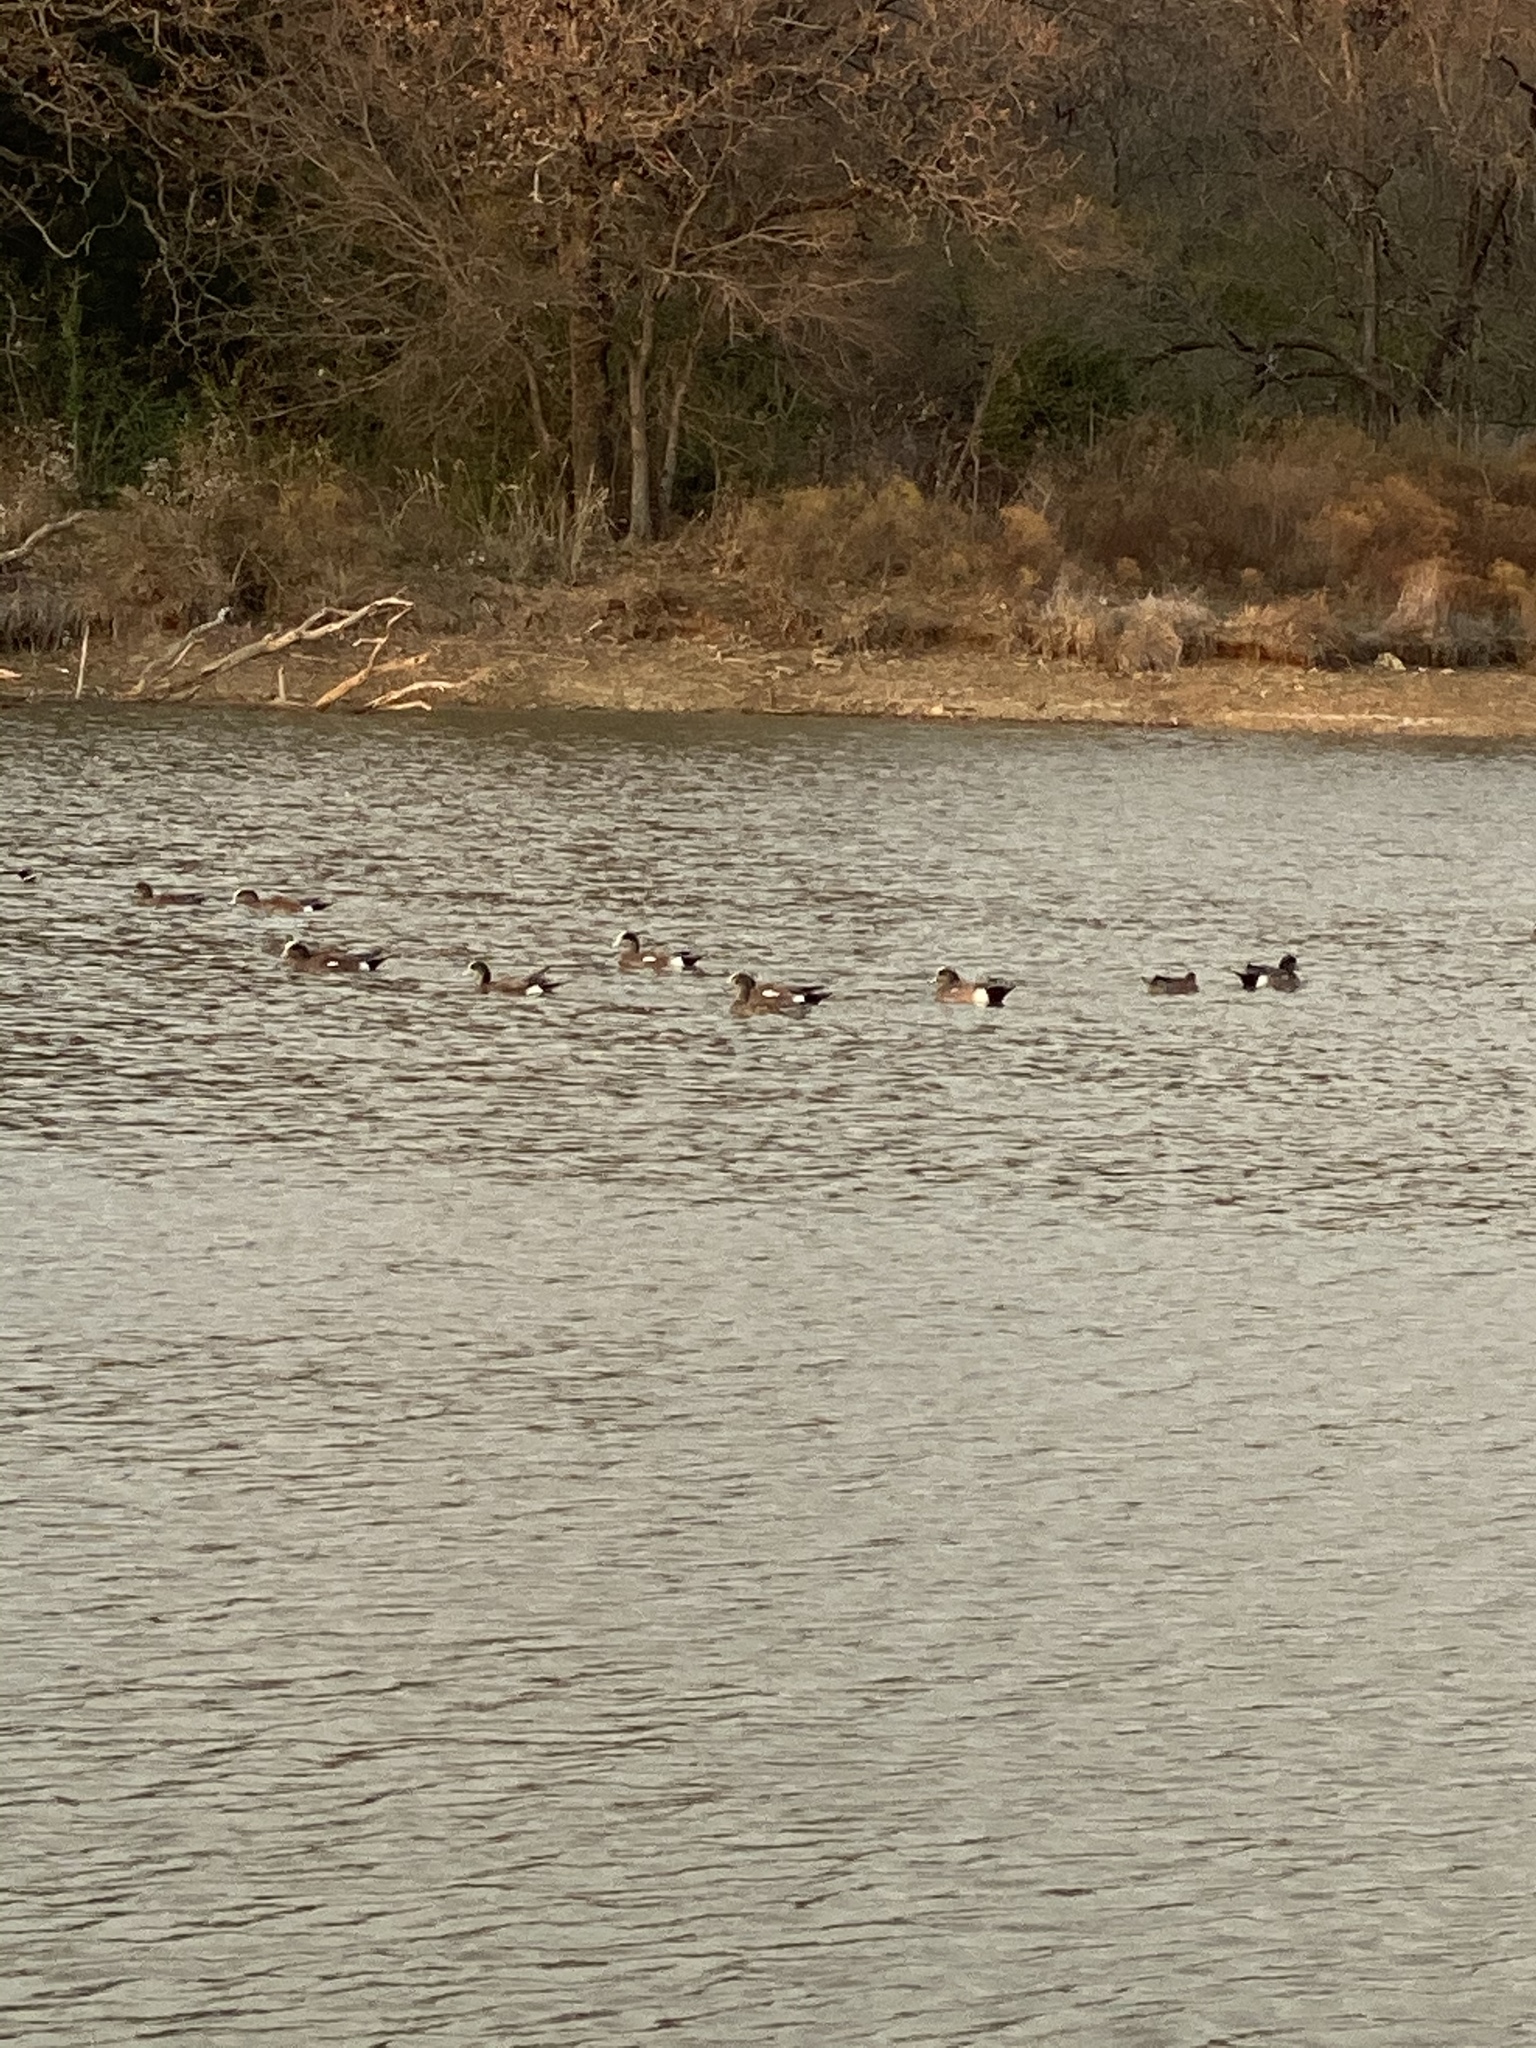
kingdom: Animalia
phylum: Chordata
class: Aves
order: Anseriformes
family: Anatidae
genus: Mareca
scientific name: Mareca americana
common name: American wigeon
